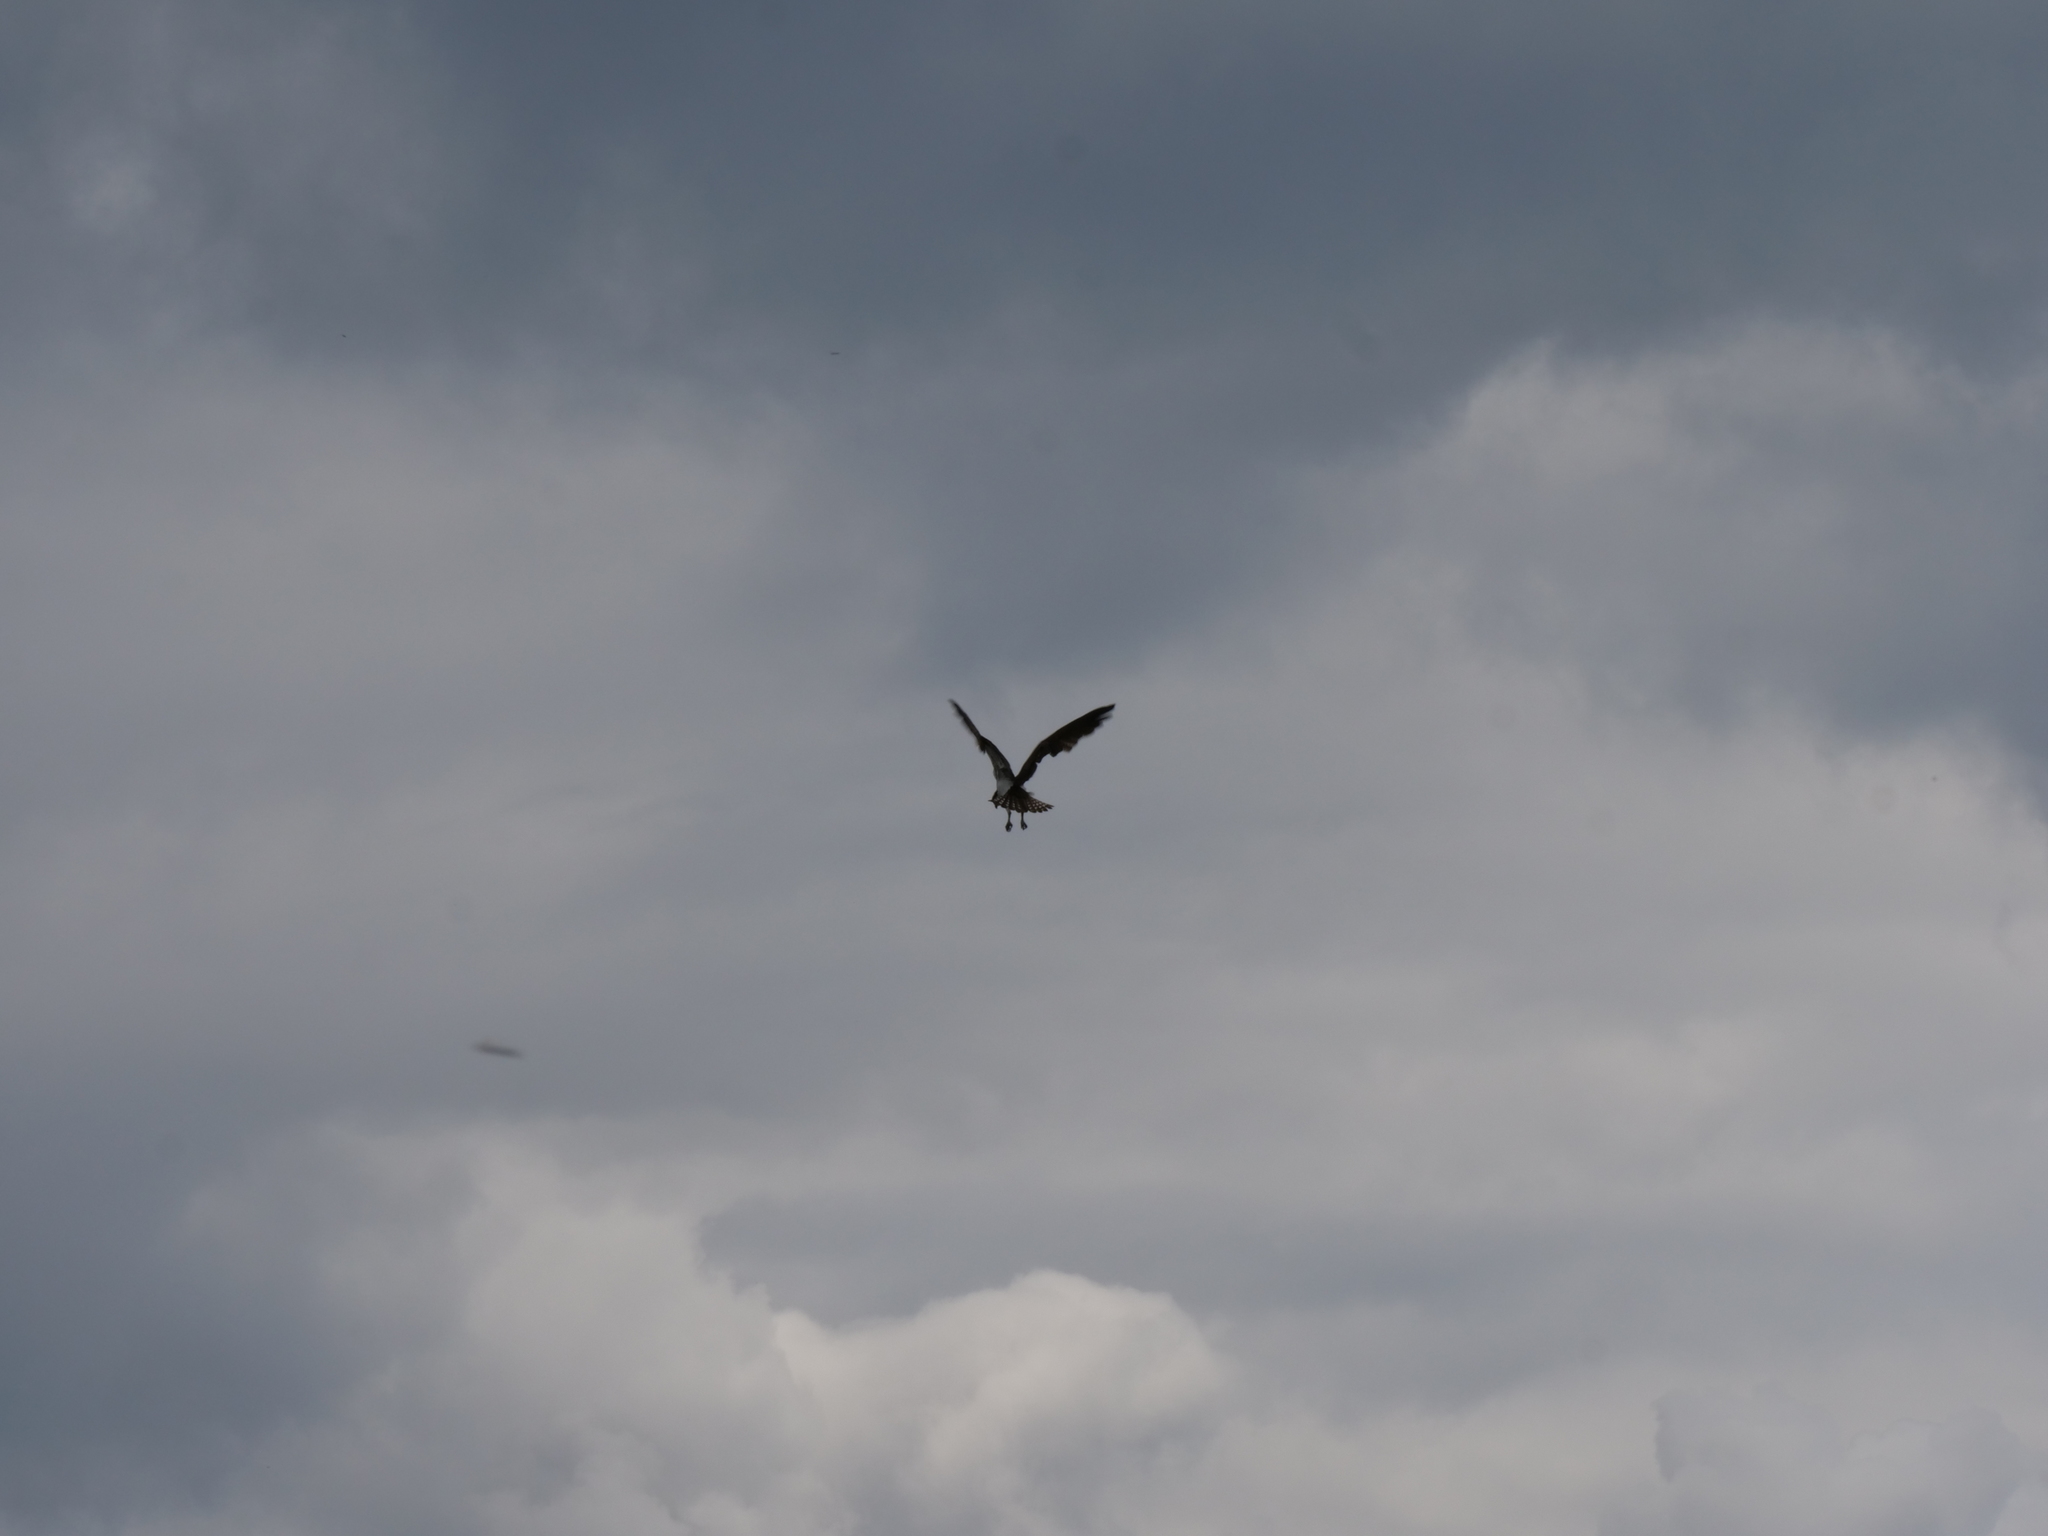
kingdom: Animalia
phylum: Chordata
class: Aves
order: Accipitriformes
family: Pandionidae
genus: Pandion
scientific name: Pandion haliaetus
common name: Osprey
